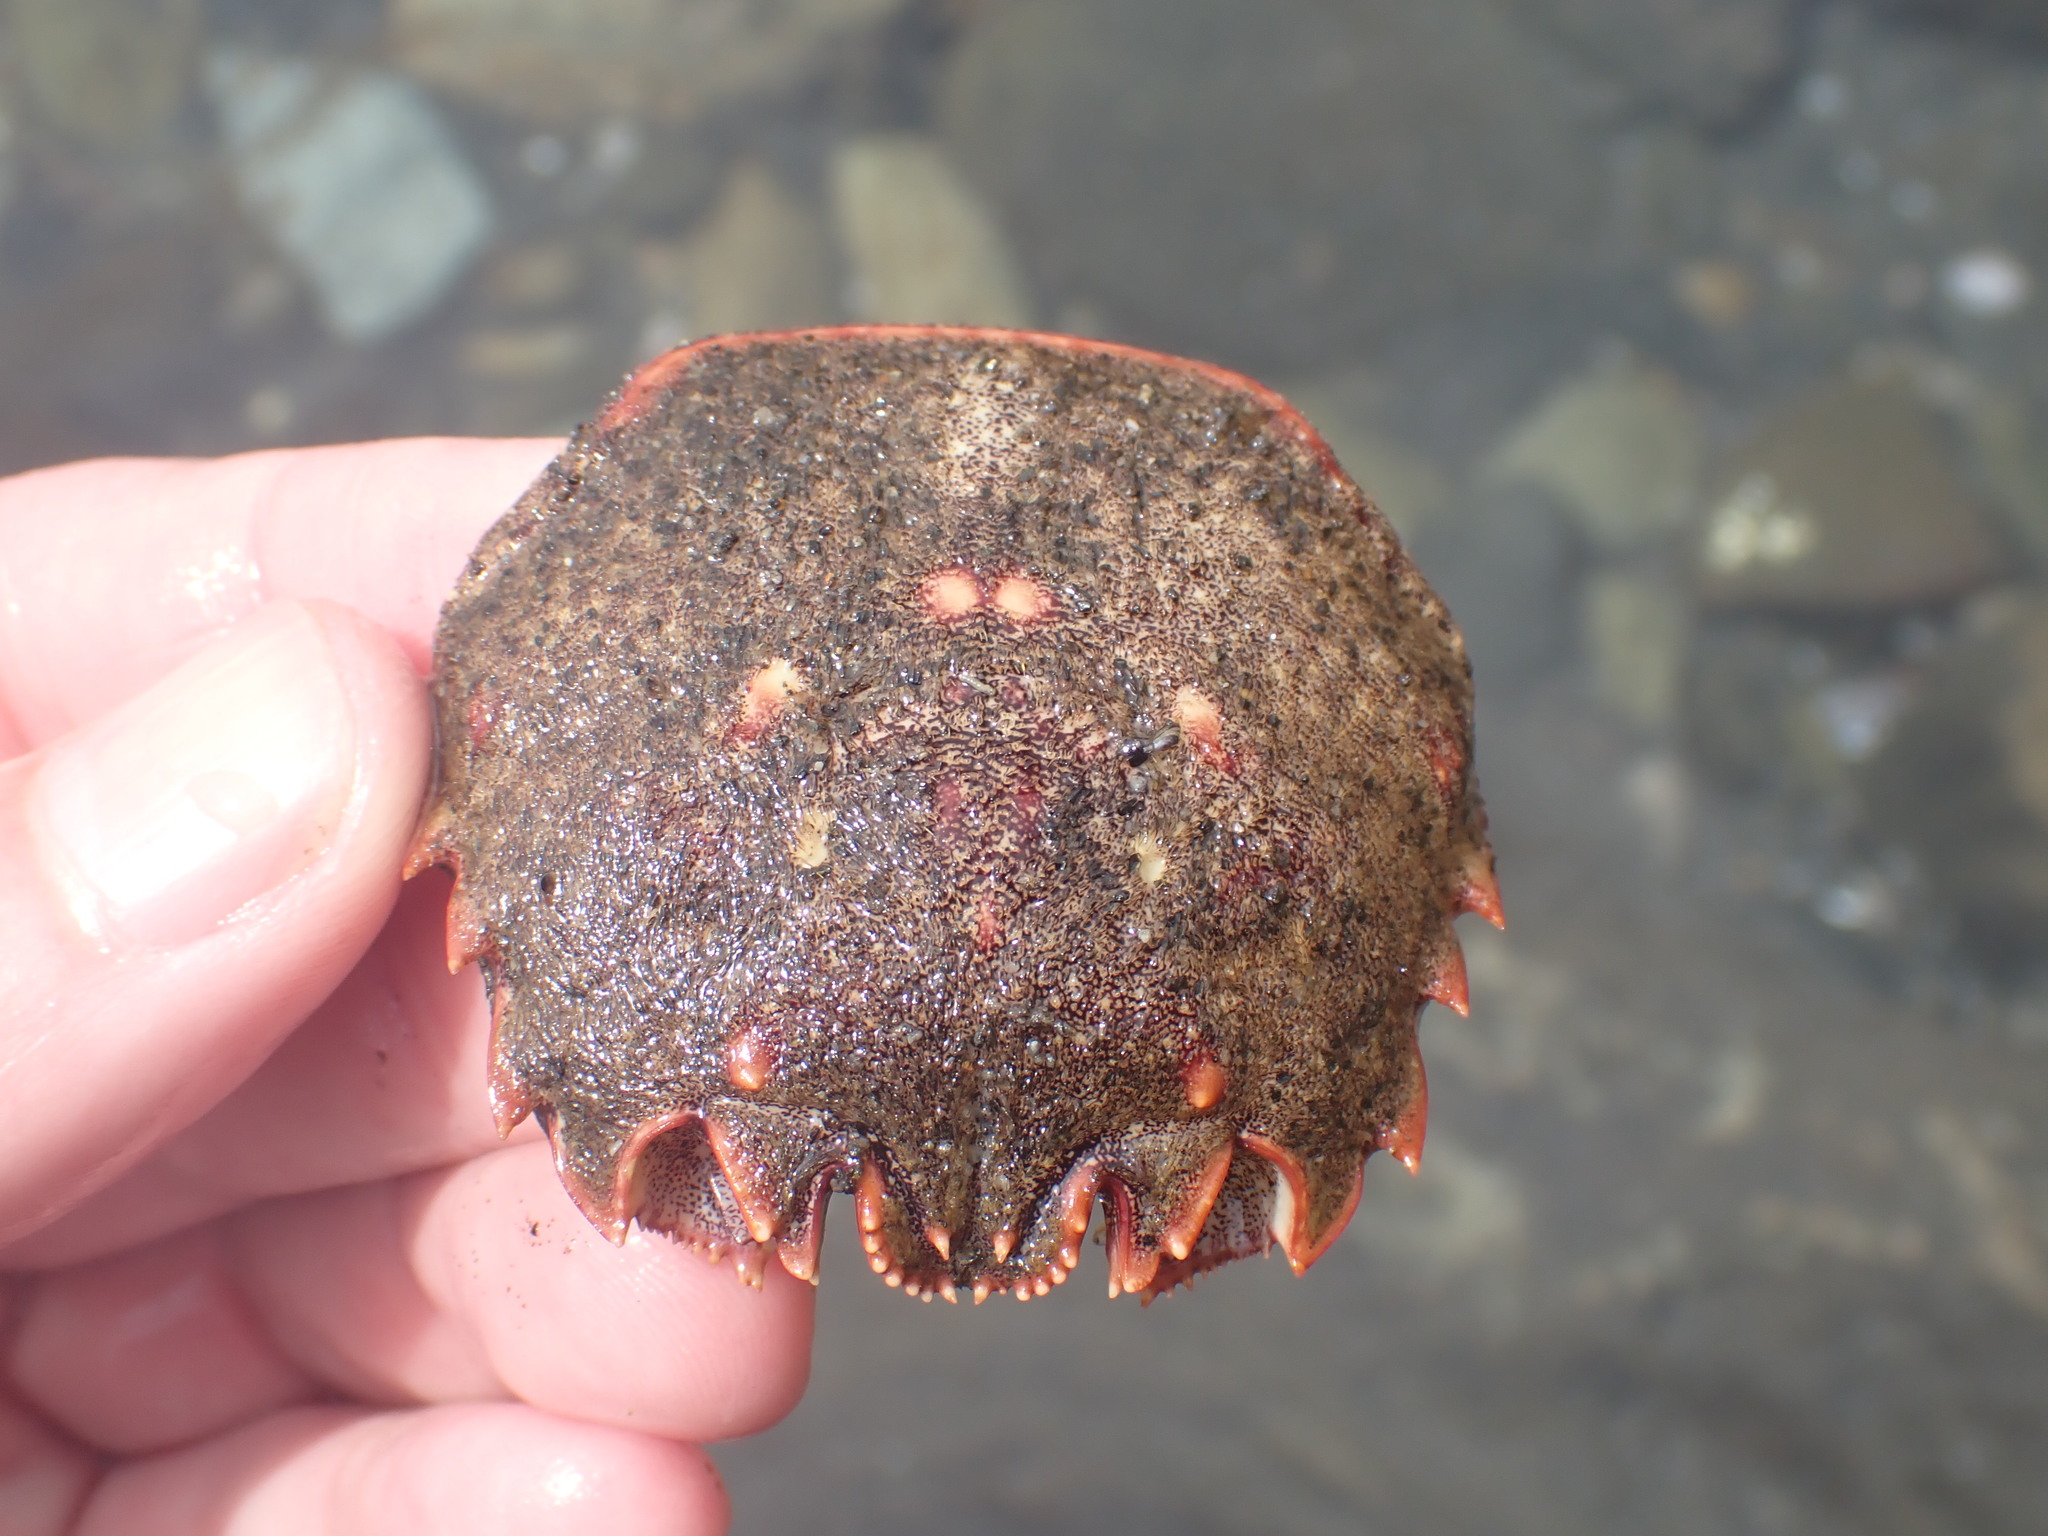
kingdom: Animalia
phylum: Arthropoda
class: Malacostraca
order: Decapoda
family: Plagusiidae
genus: Guinusia
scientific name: Guinusia chabrus
